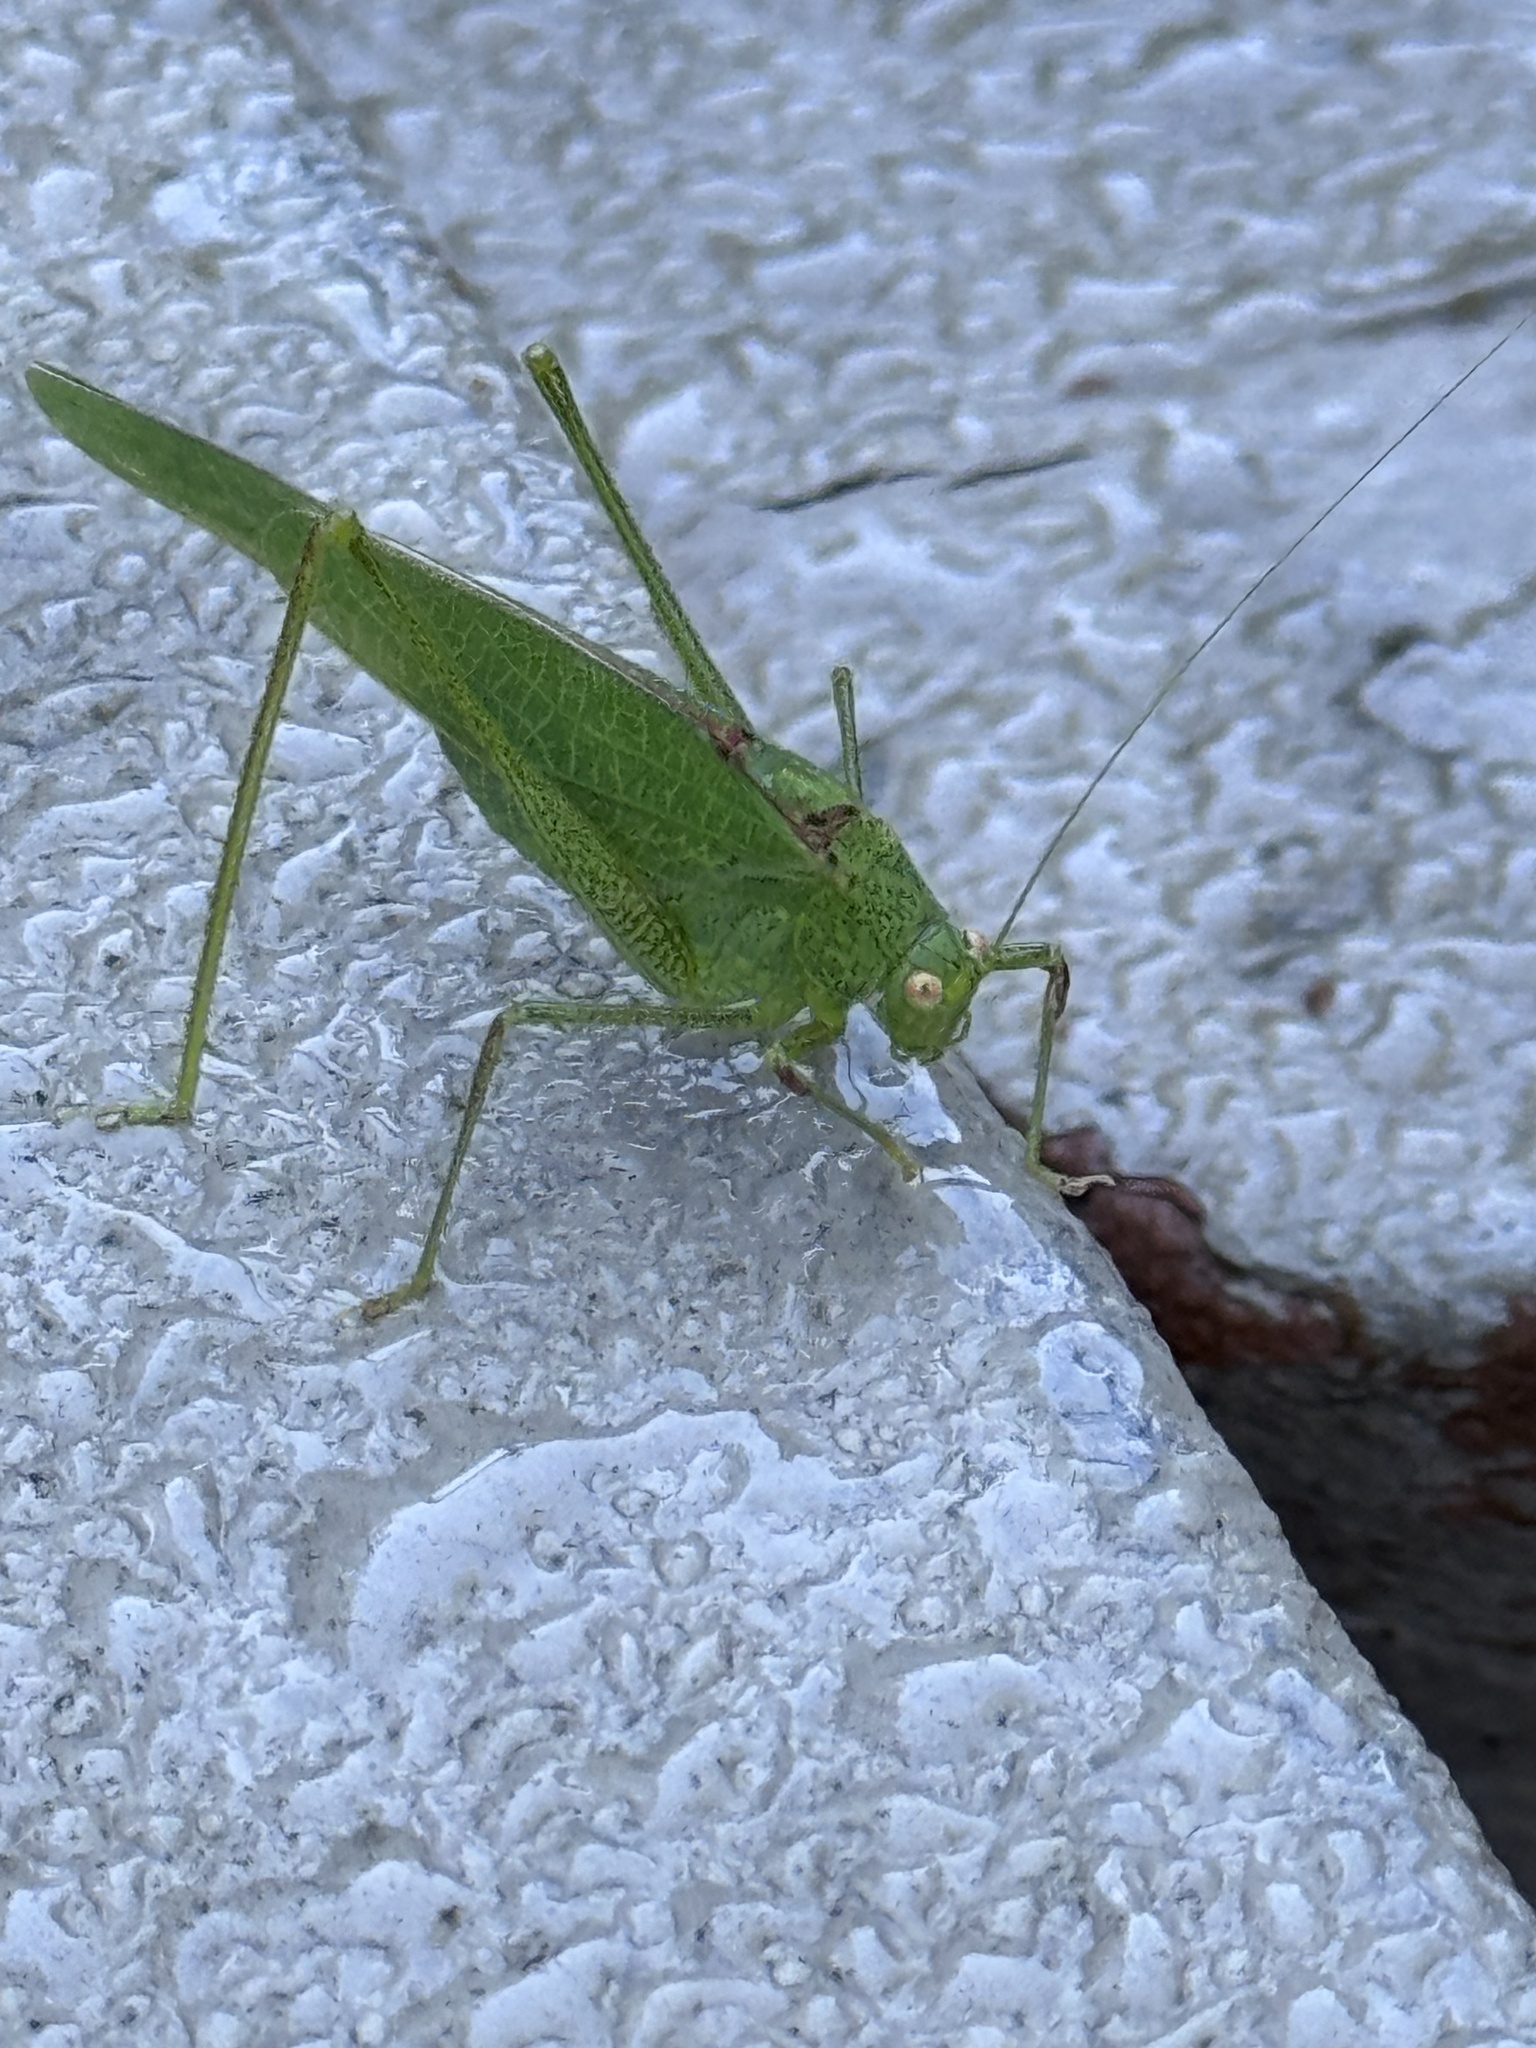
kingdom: Animalia
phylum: Arthropoda
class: Insecta
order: Orthoptera
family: Tettigoniidae
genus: Phaneroptera
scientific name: Phaneroptera nana
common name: Southern sickle bush-cricket
